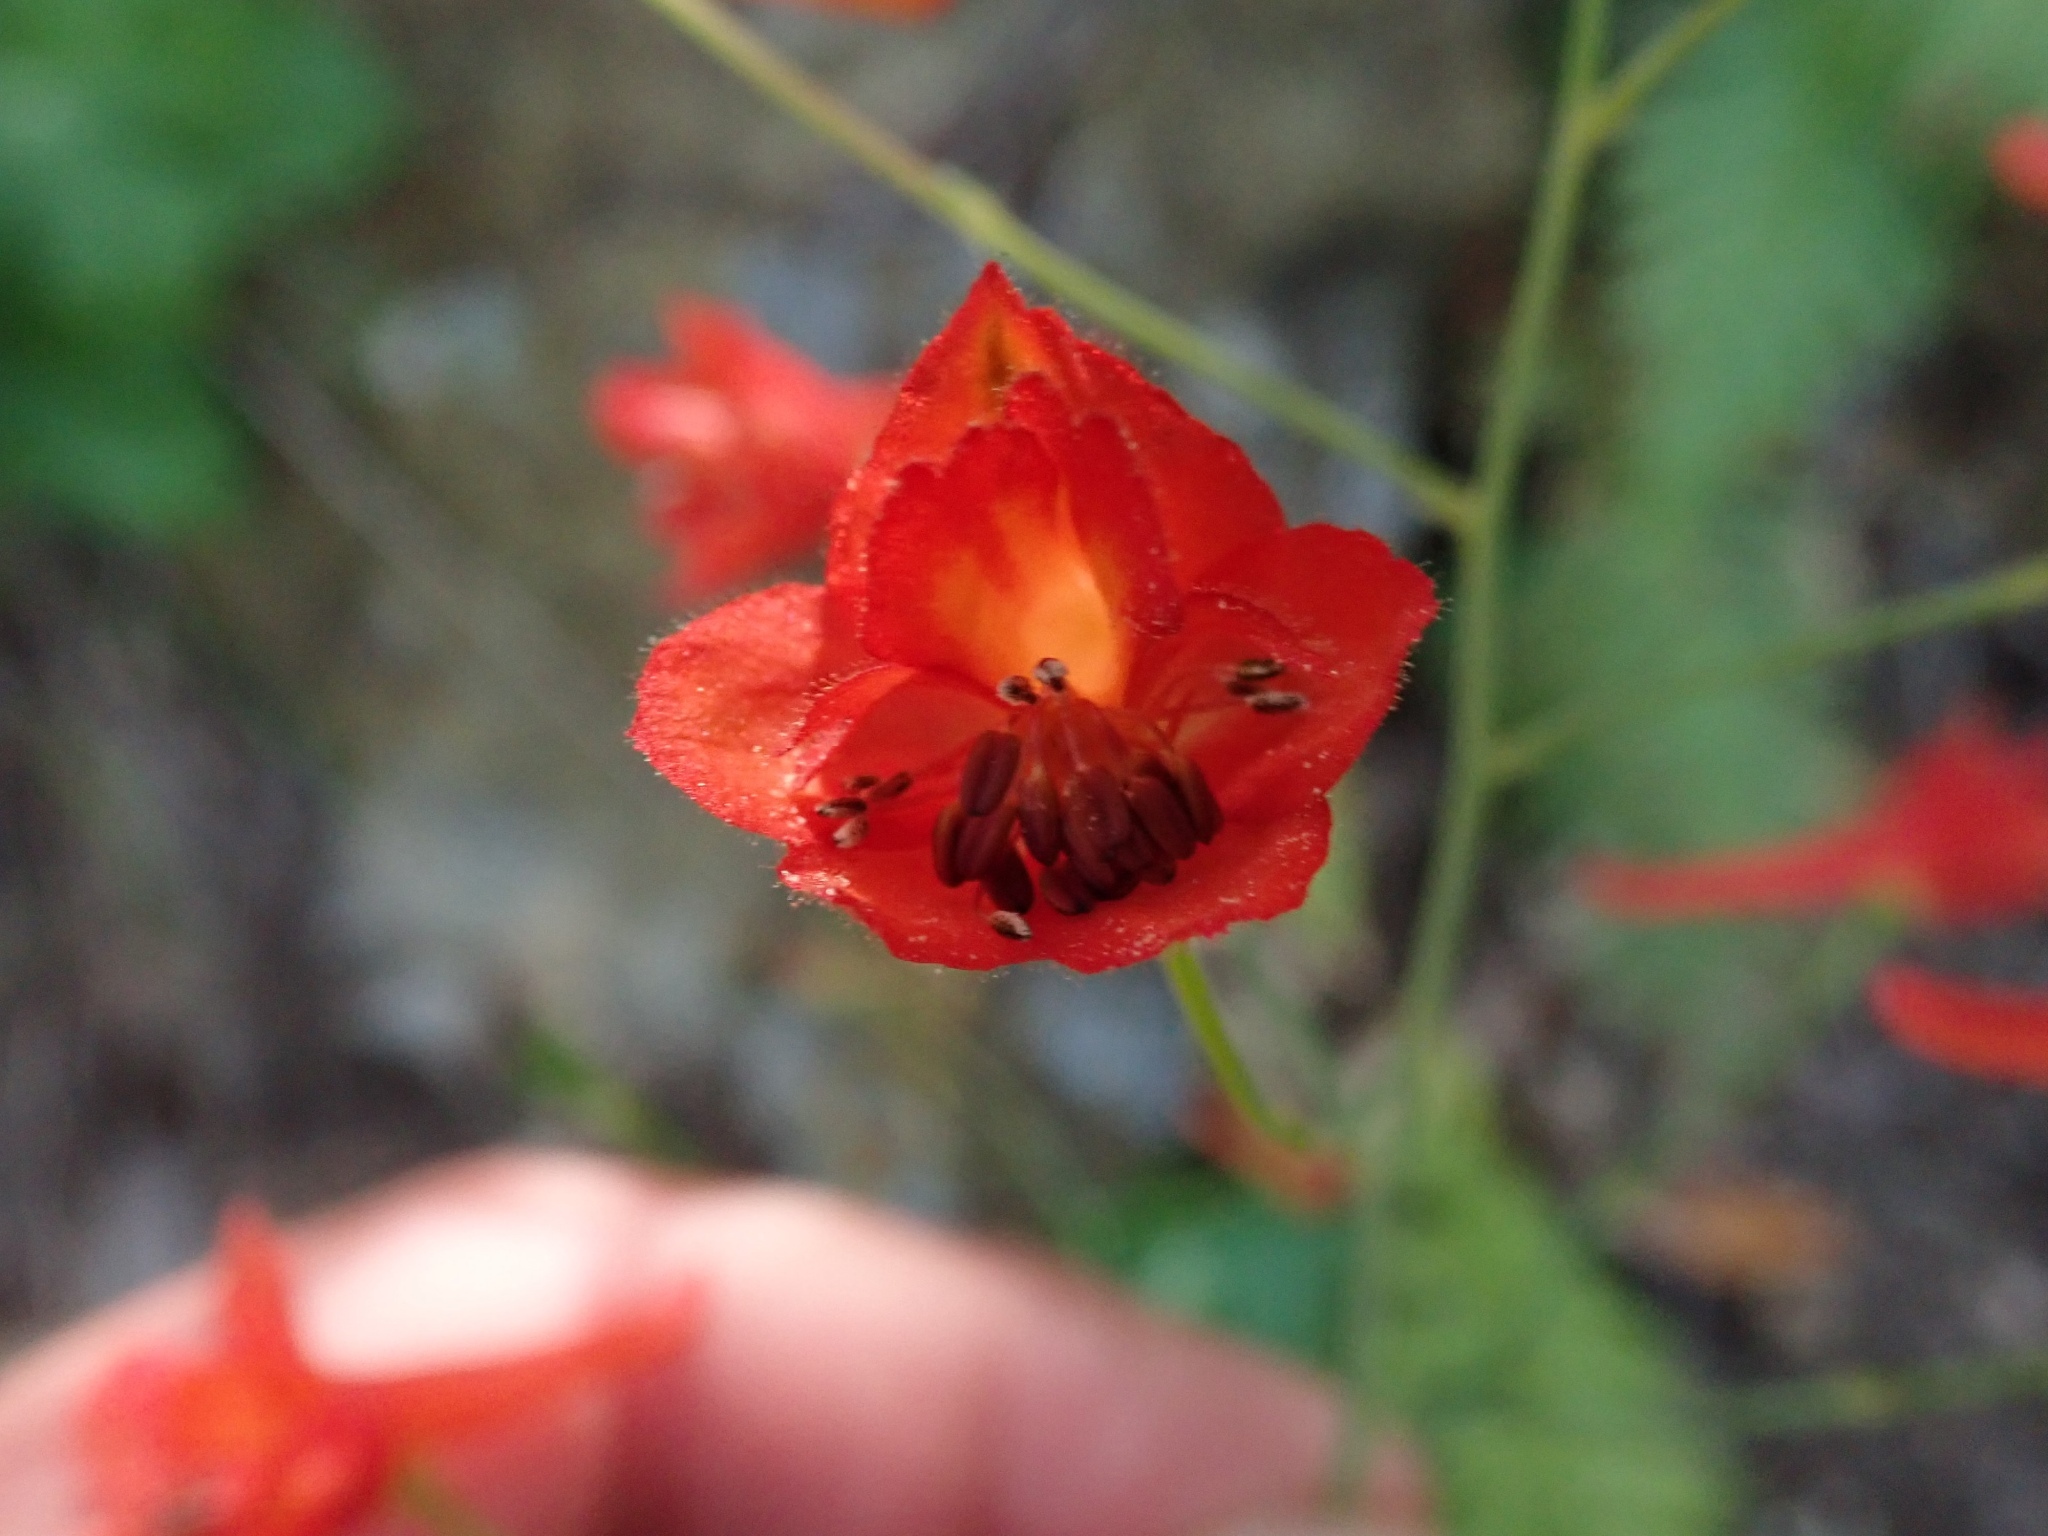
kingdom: Plantae
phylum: Tracheophyta
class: Magnoliopsida
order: Ranunculales
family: Ranunculaceae
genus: Delphinium
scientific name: Delphinium nudicaule
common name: Red larkspur
